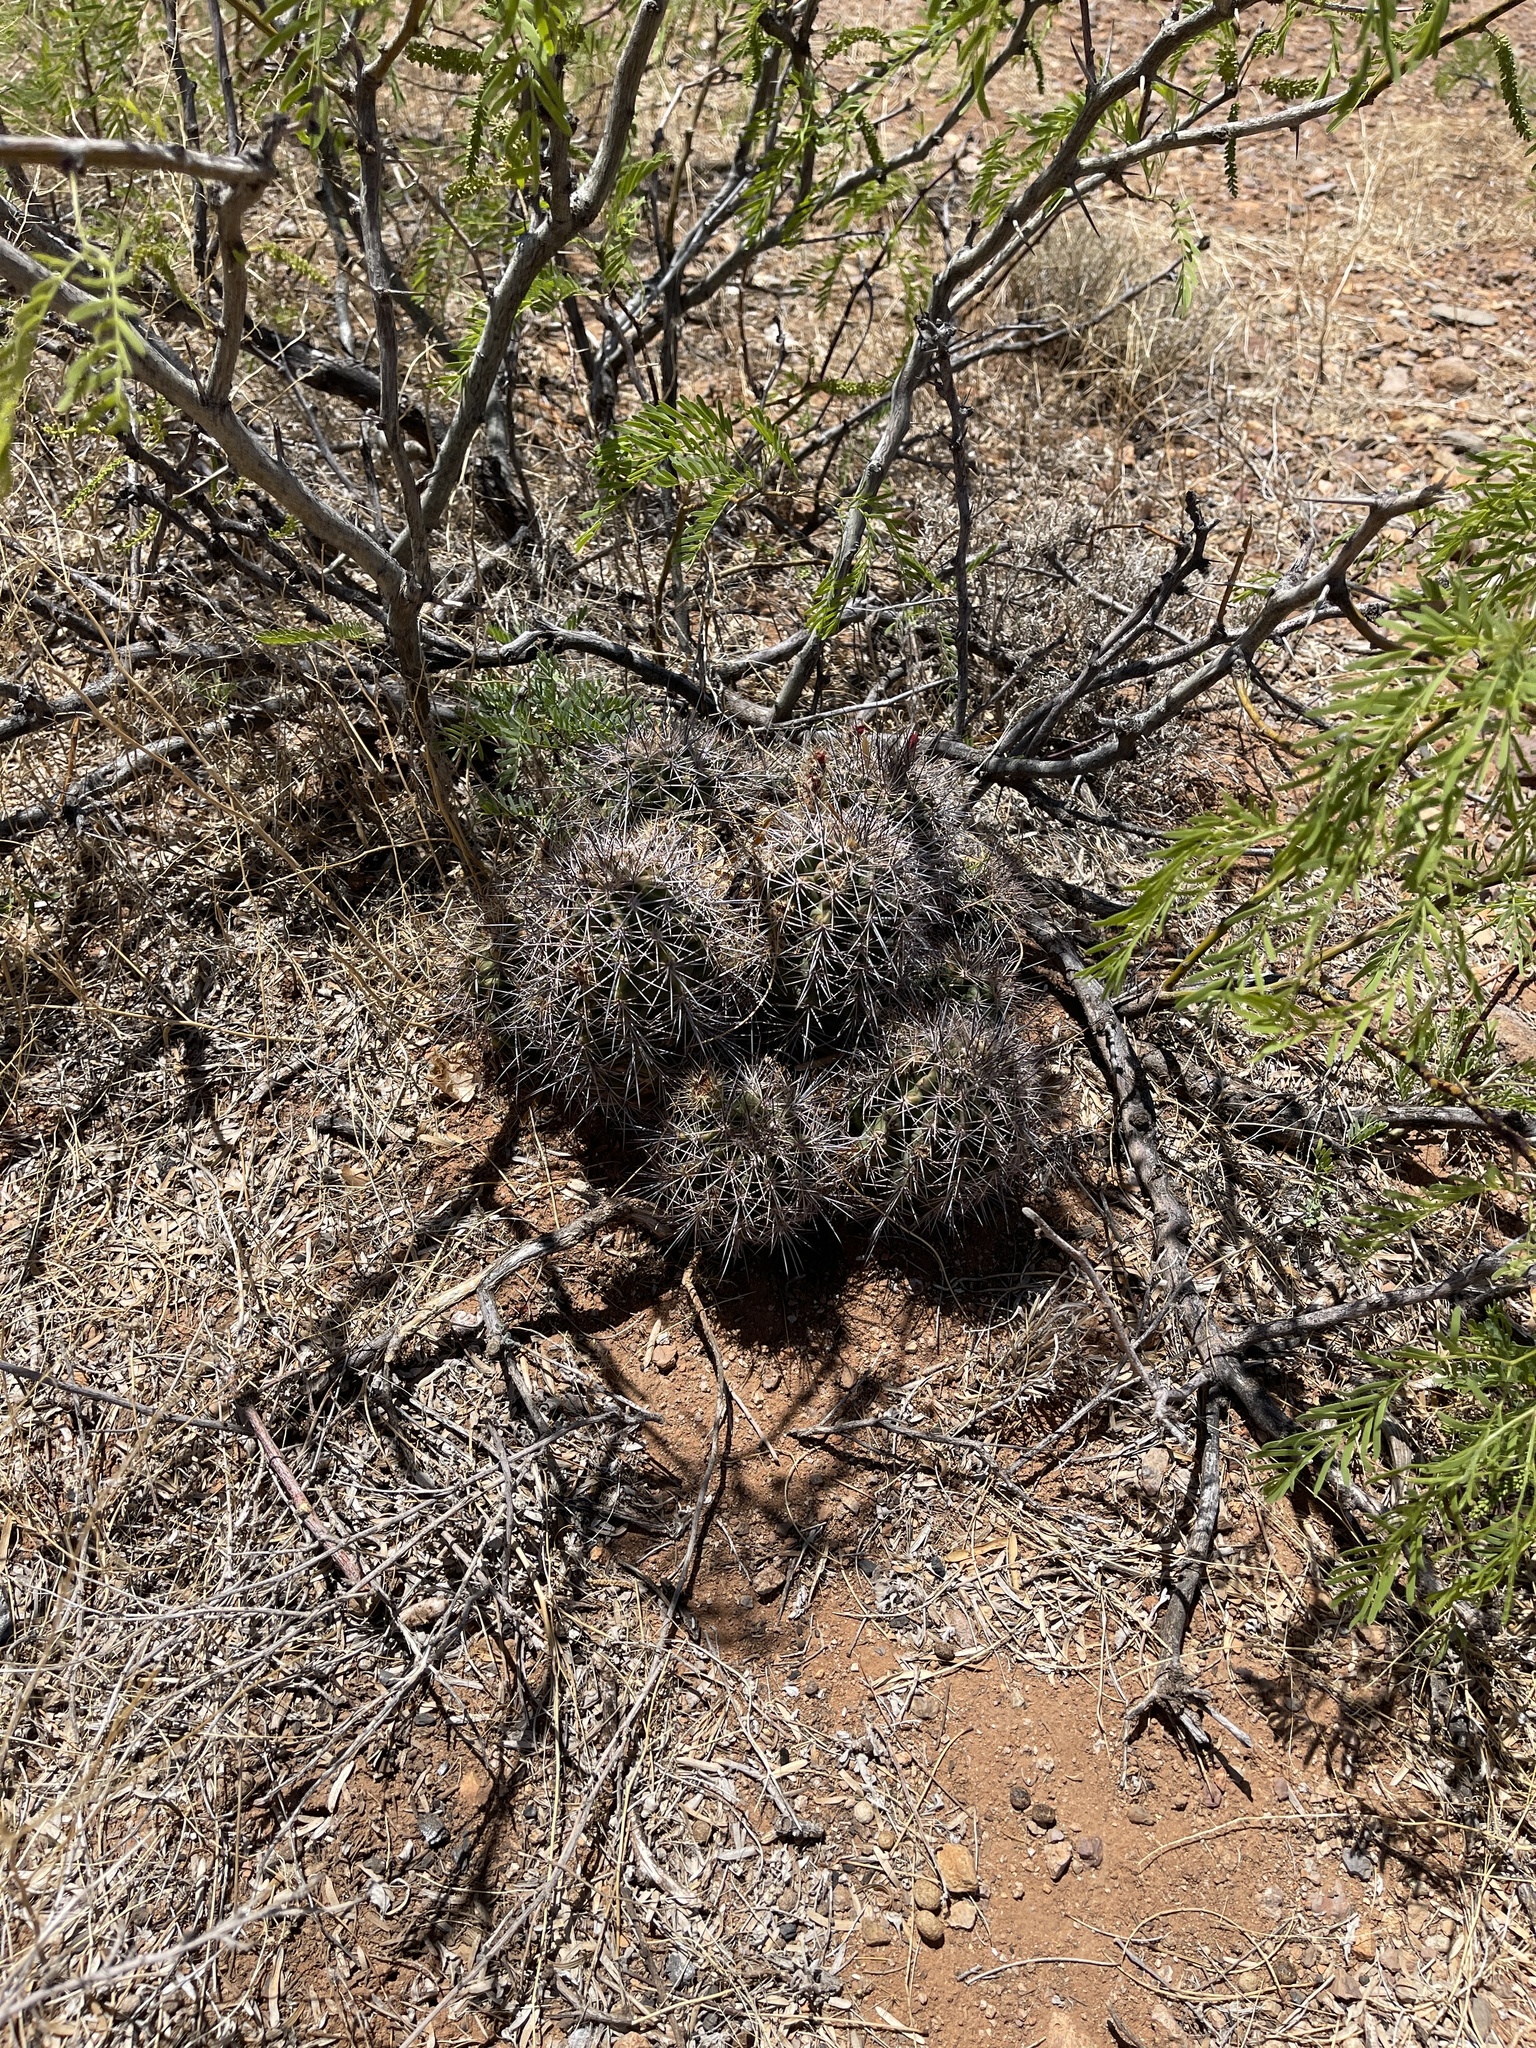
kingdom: Plantae
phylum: Tracheophyta
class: Magnoliopsida
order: Caryophyllales
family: Cactaceae
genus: Echinocereus
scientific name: Echinocereus coccineus
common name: Scarlet hedgehog cactus
